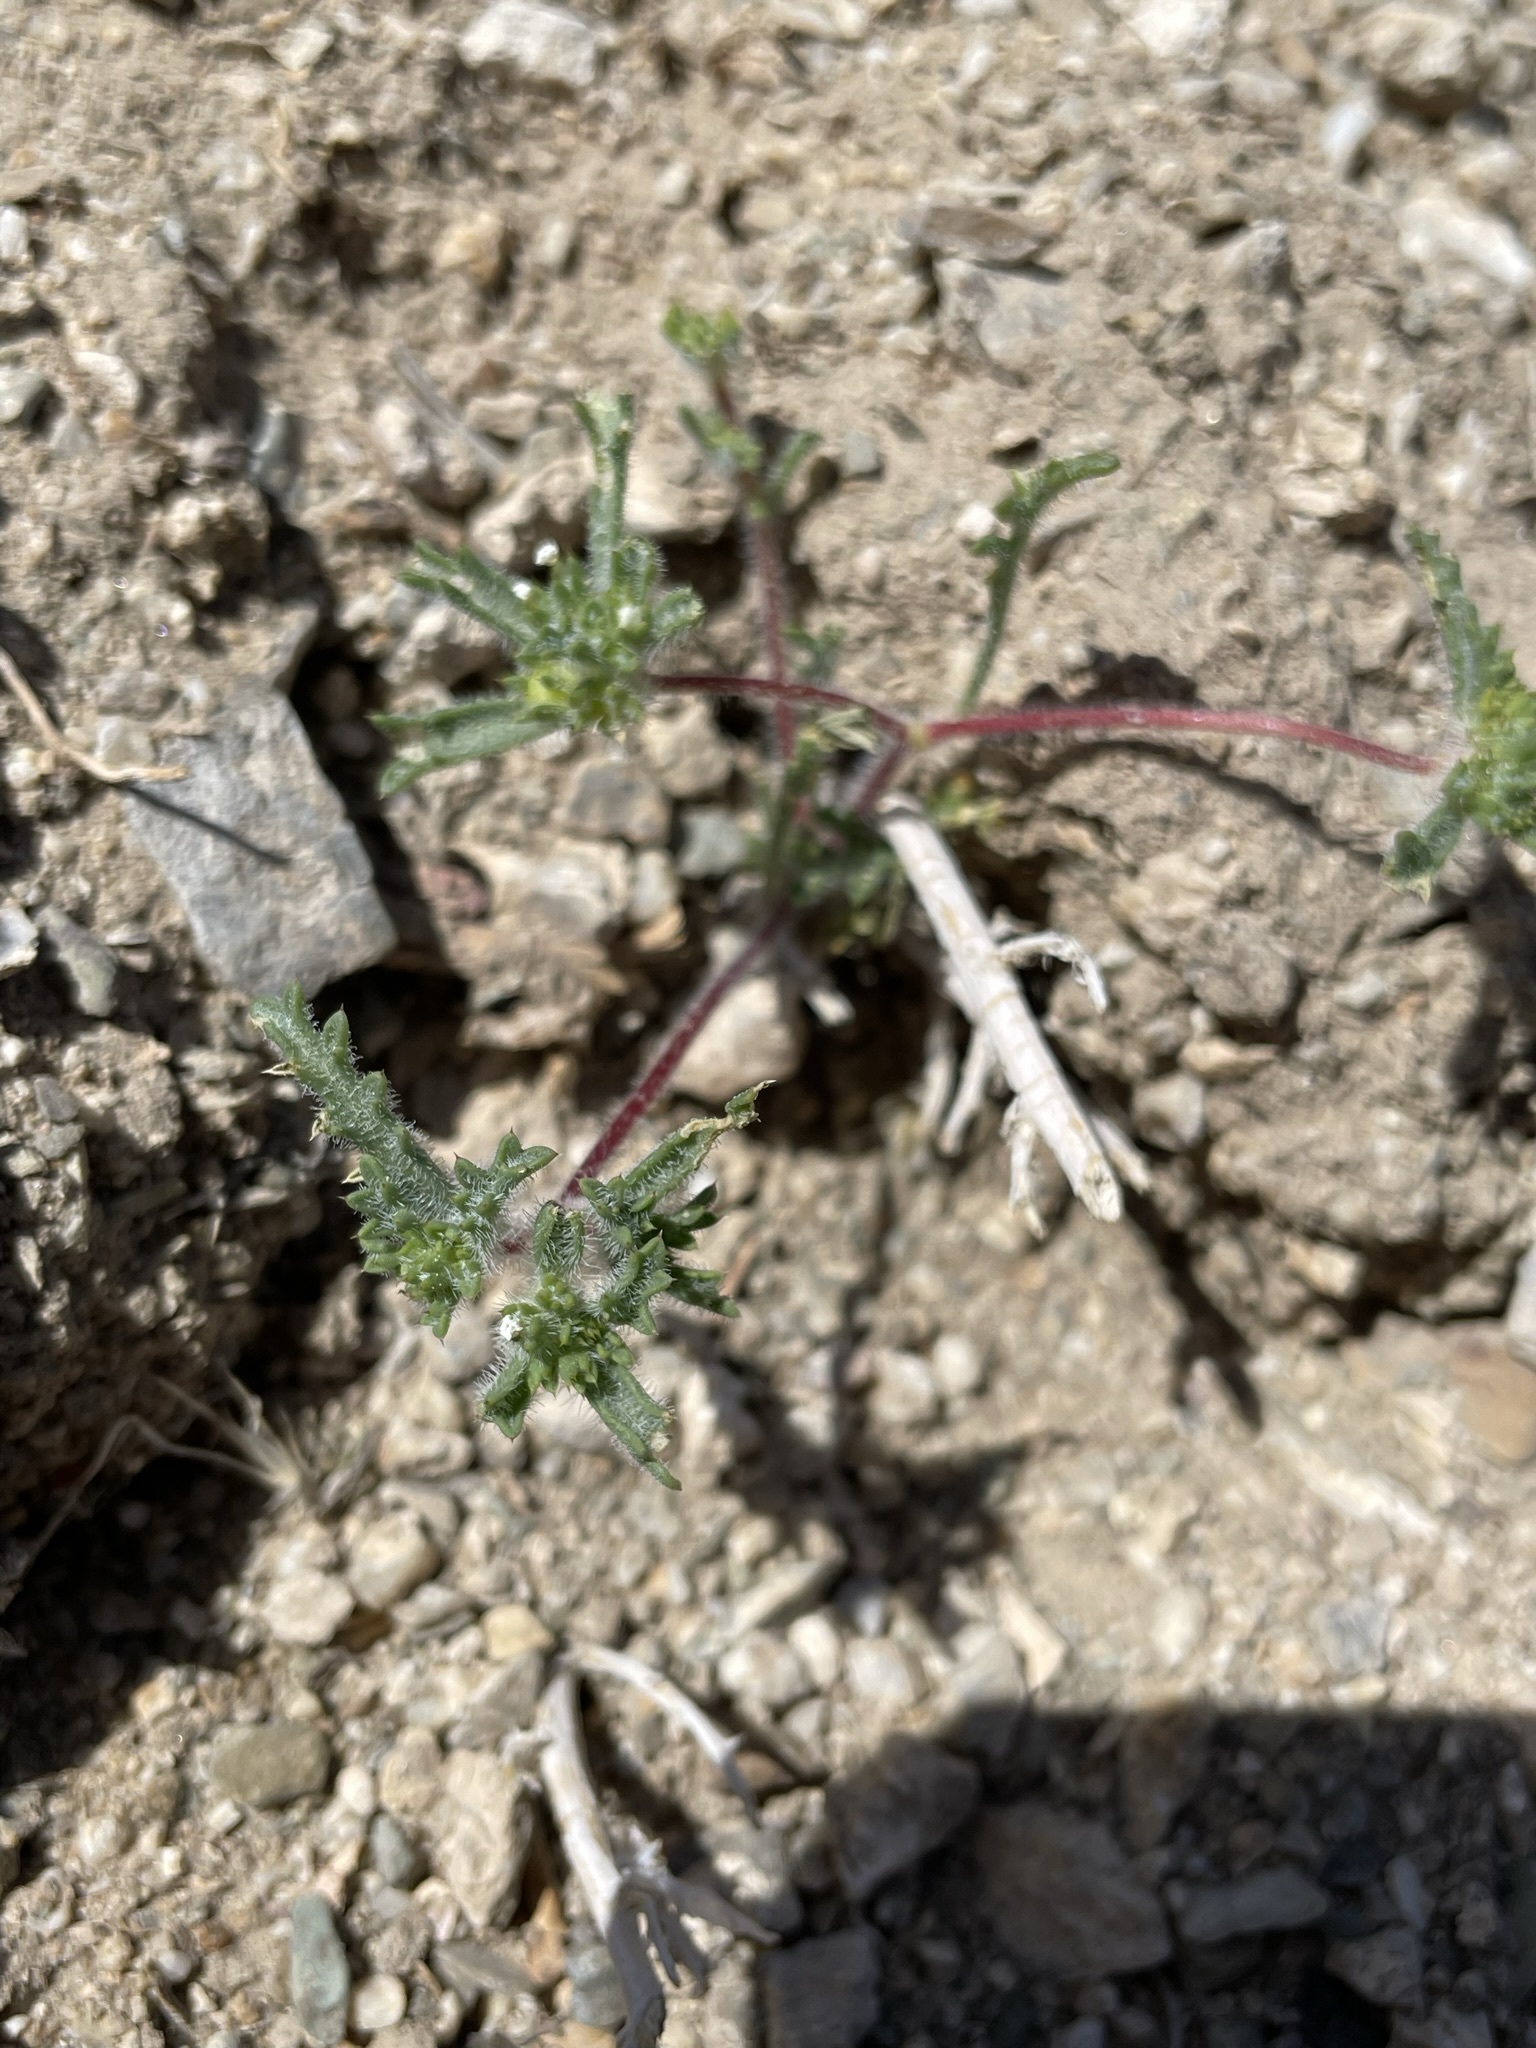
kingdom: Plantae
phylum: Tracheophyta
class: Magnoliopsida
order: Ericales
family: Polemoniaceae
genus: Ipomopsis
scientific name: Ipomopsis polycladon
